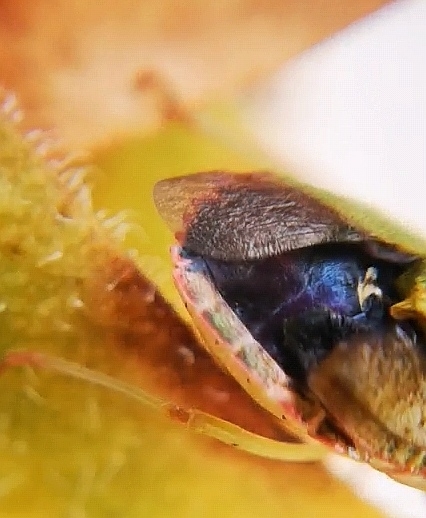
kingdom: Animalia
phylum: Arthropoda
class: Insecta
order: Hemiptera
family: Pentatomidae
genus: Palomena
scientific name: Palomena prasina
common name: Green shieldbug
